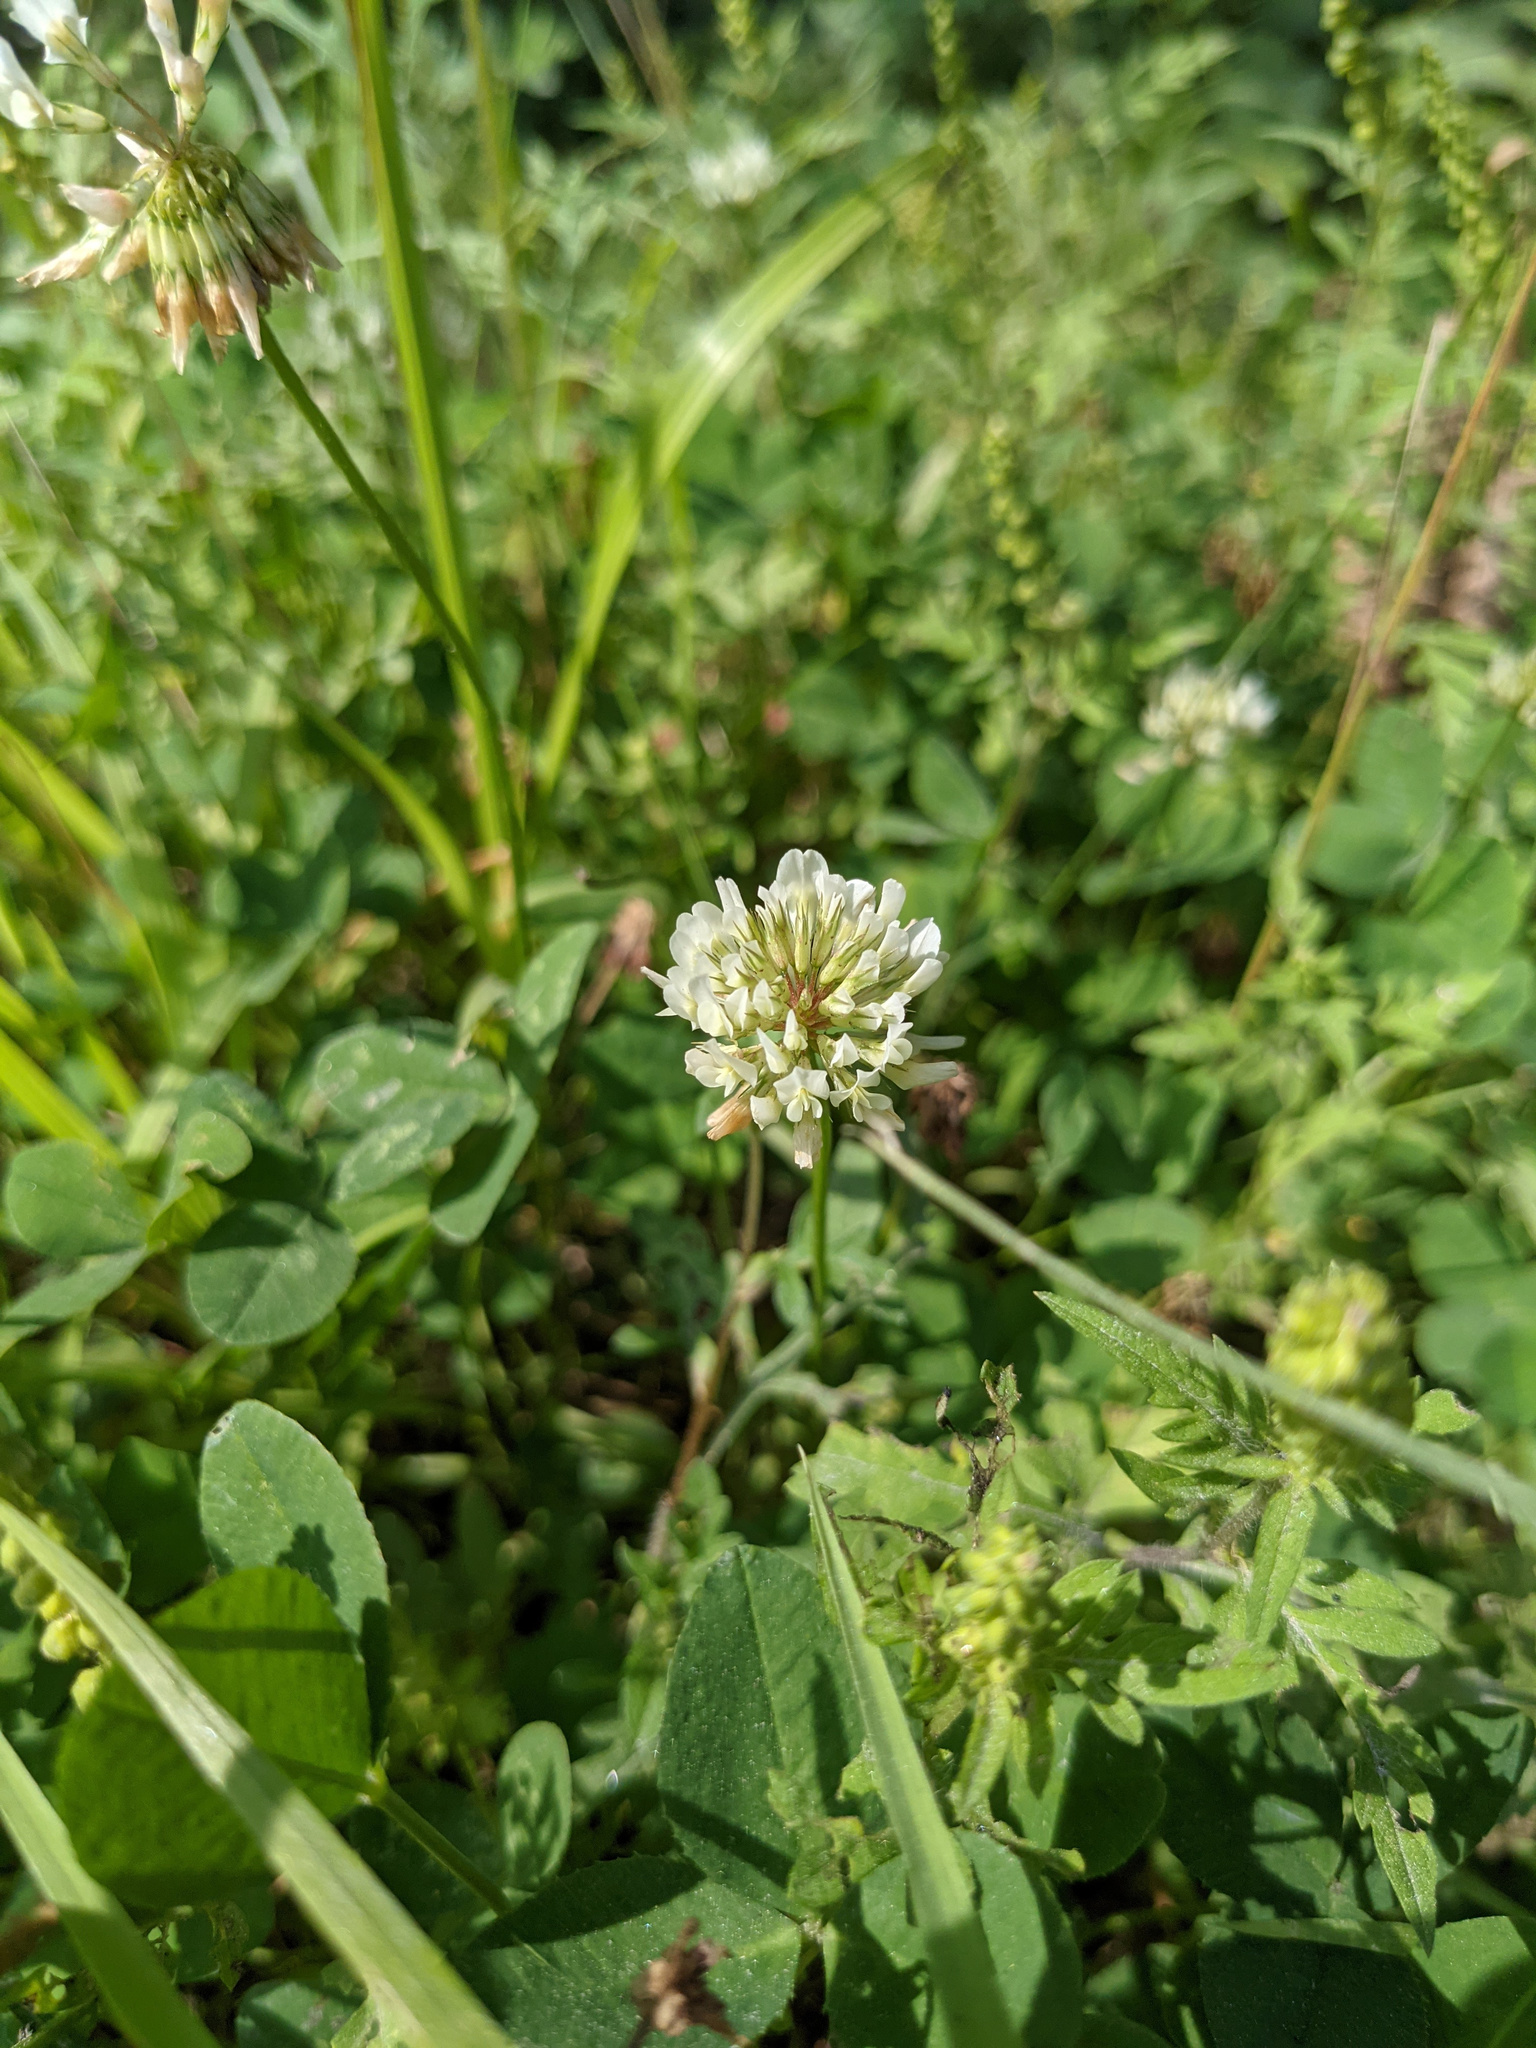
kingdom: Plantae
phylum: Tracheophyta
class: Magnoliopsida
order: Fabales
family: Fabaceae
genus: Trifolium
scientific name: Trifolium repens
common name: White clover
